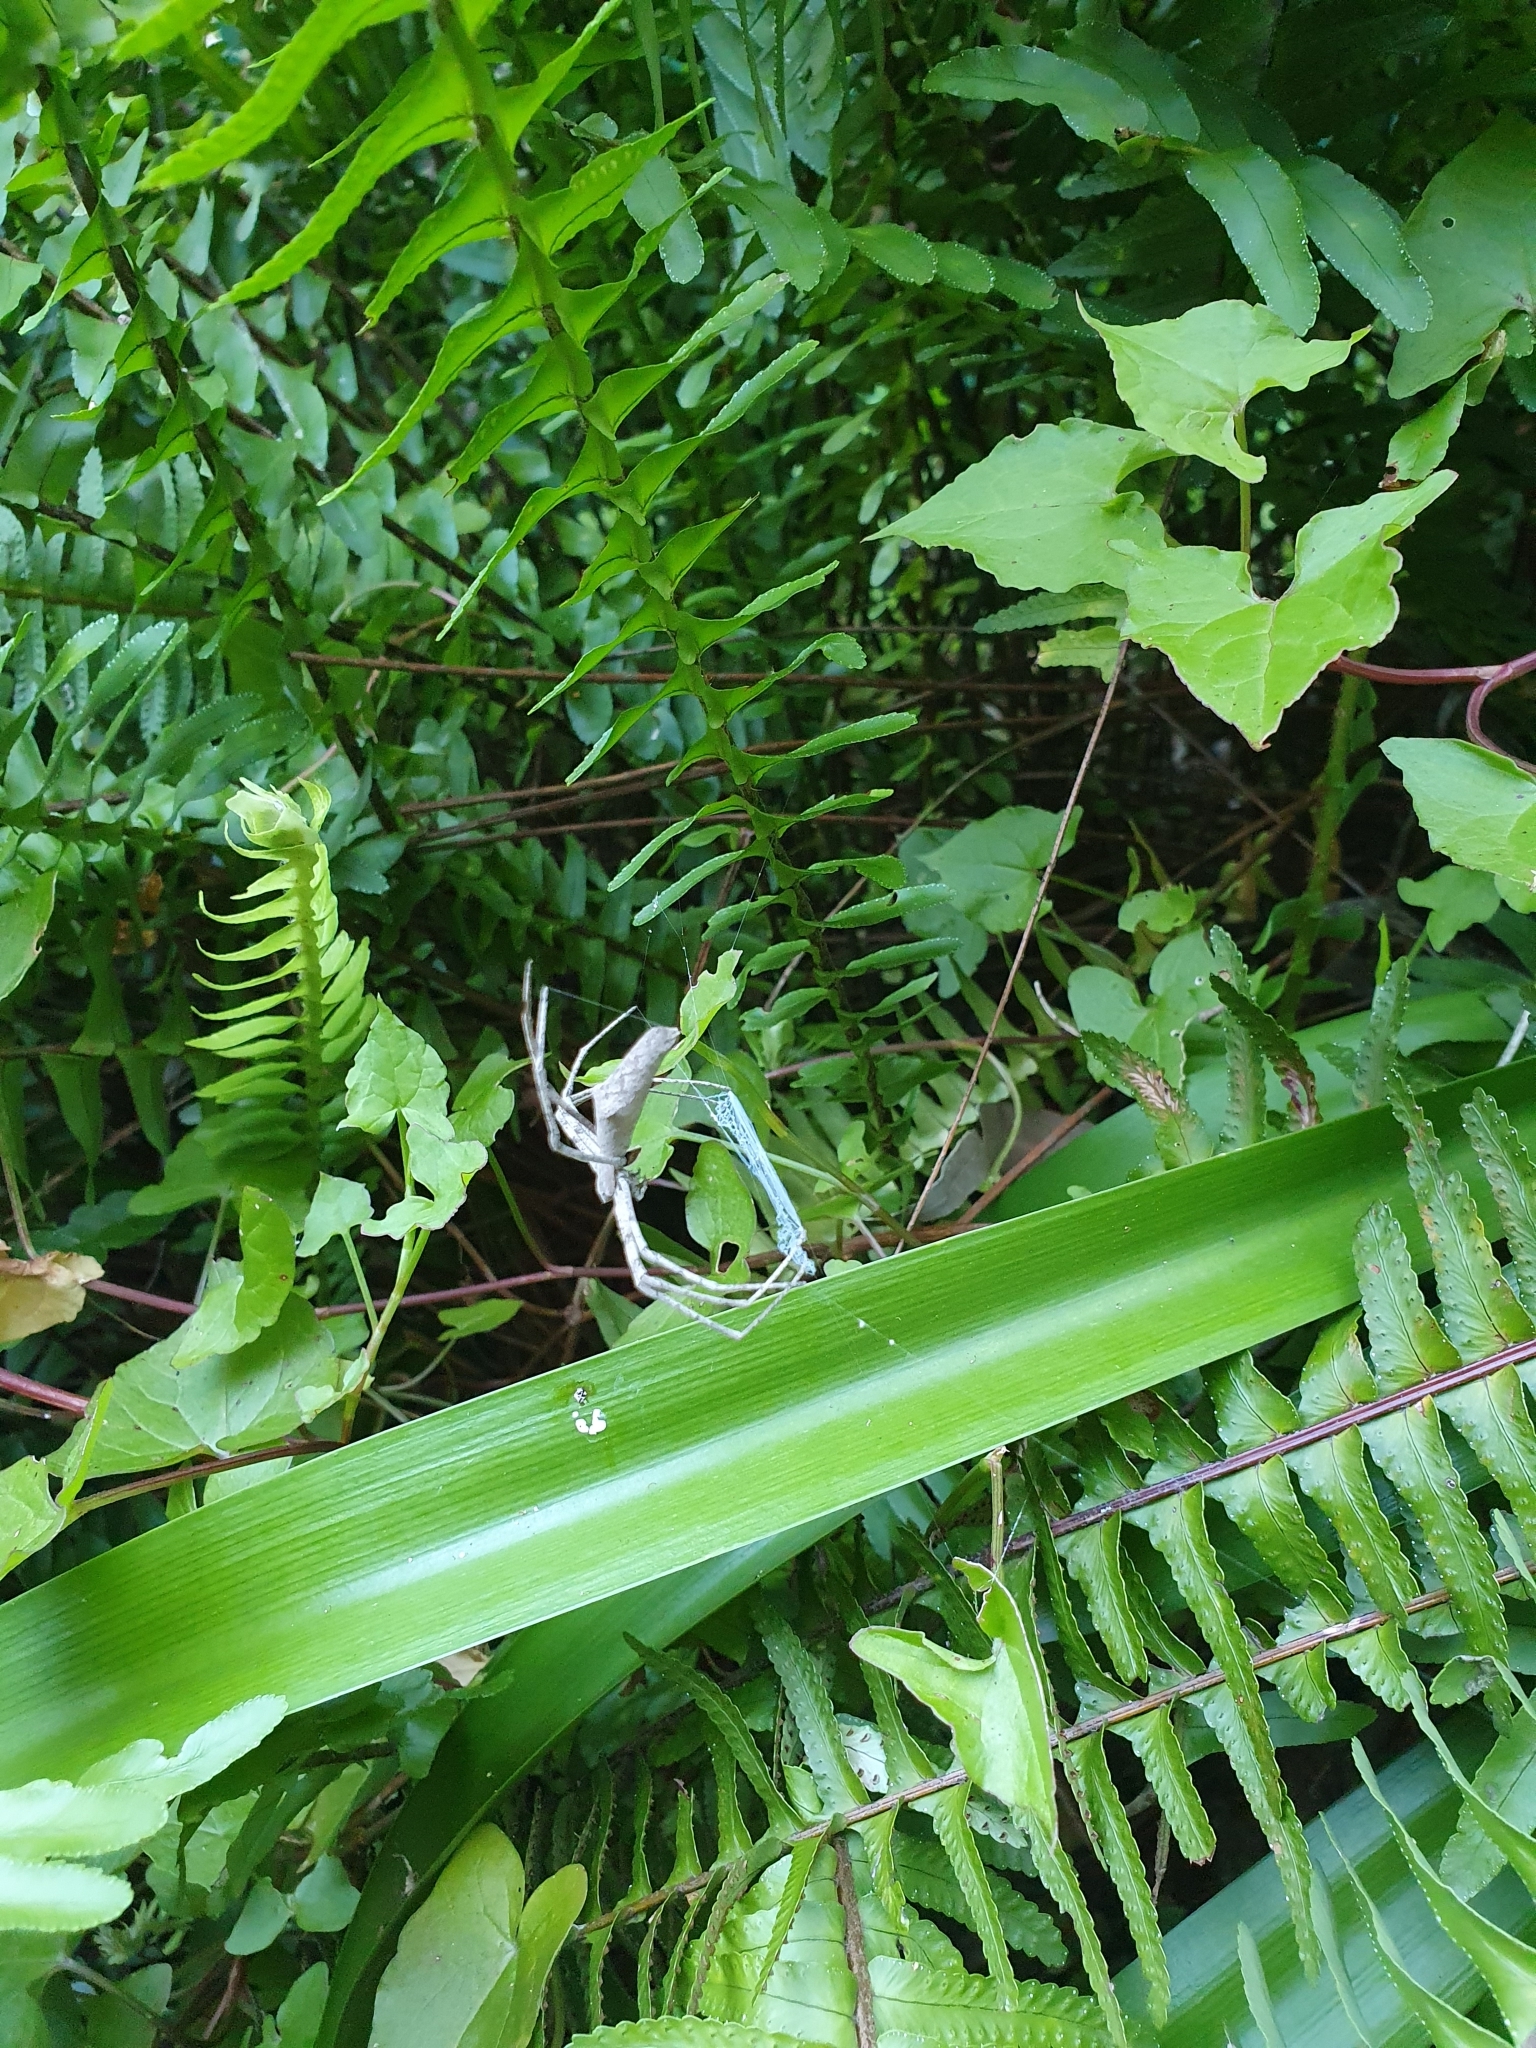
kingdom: Animalia
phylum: Arthropoda
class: Arachnida
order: Araneae
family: Deinopidae
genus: Deinopis
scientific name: Deinopis subrufa
